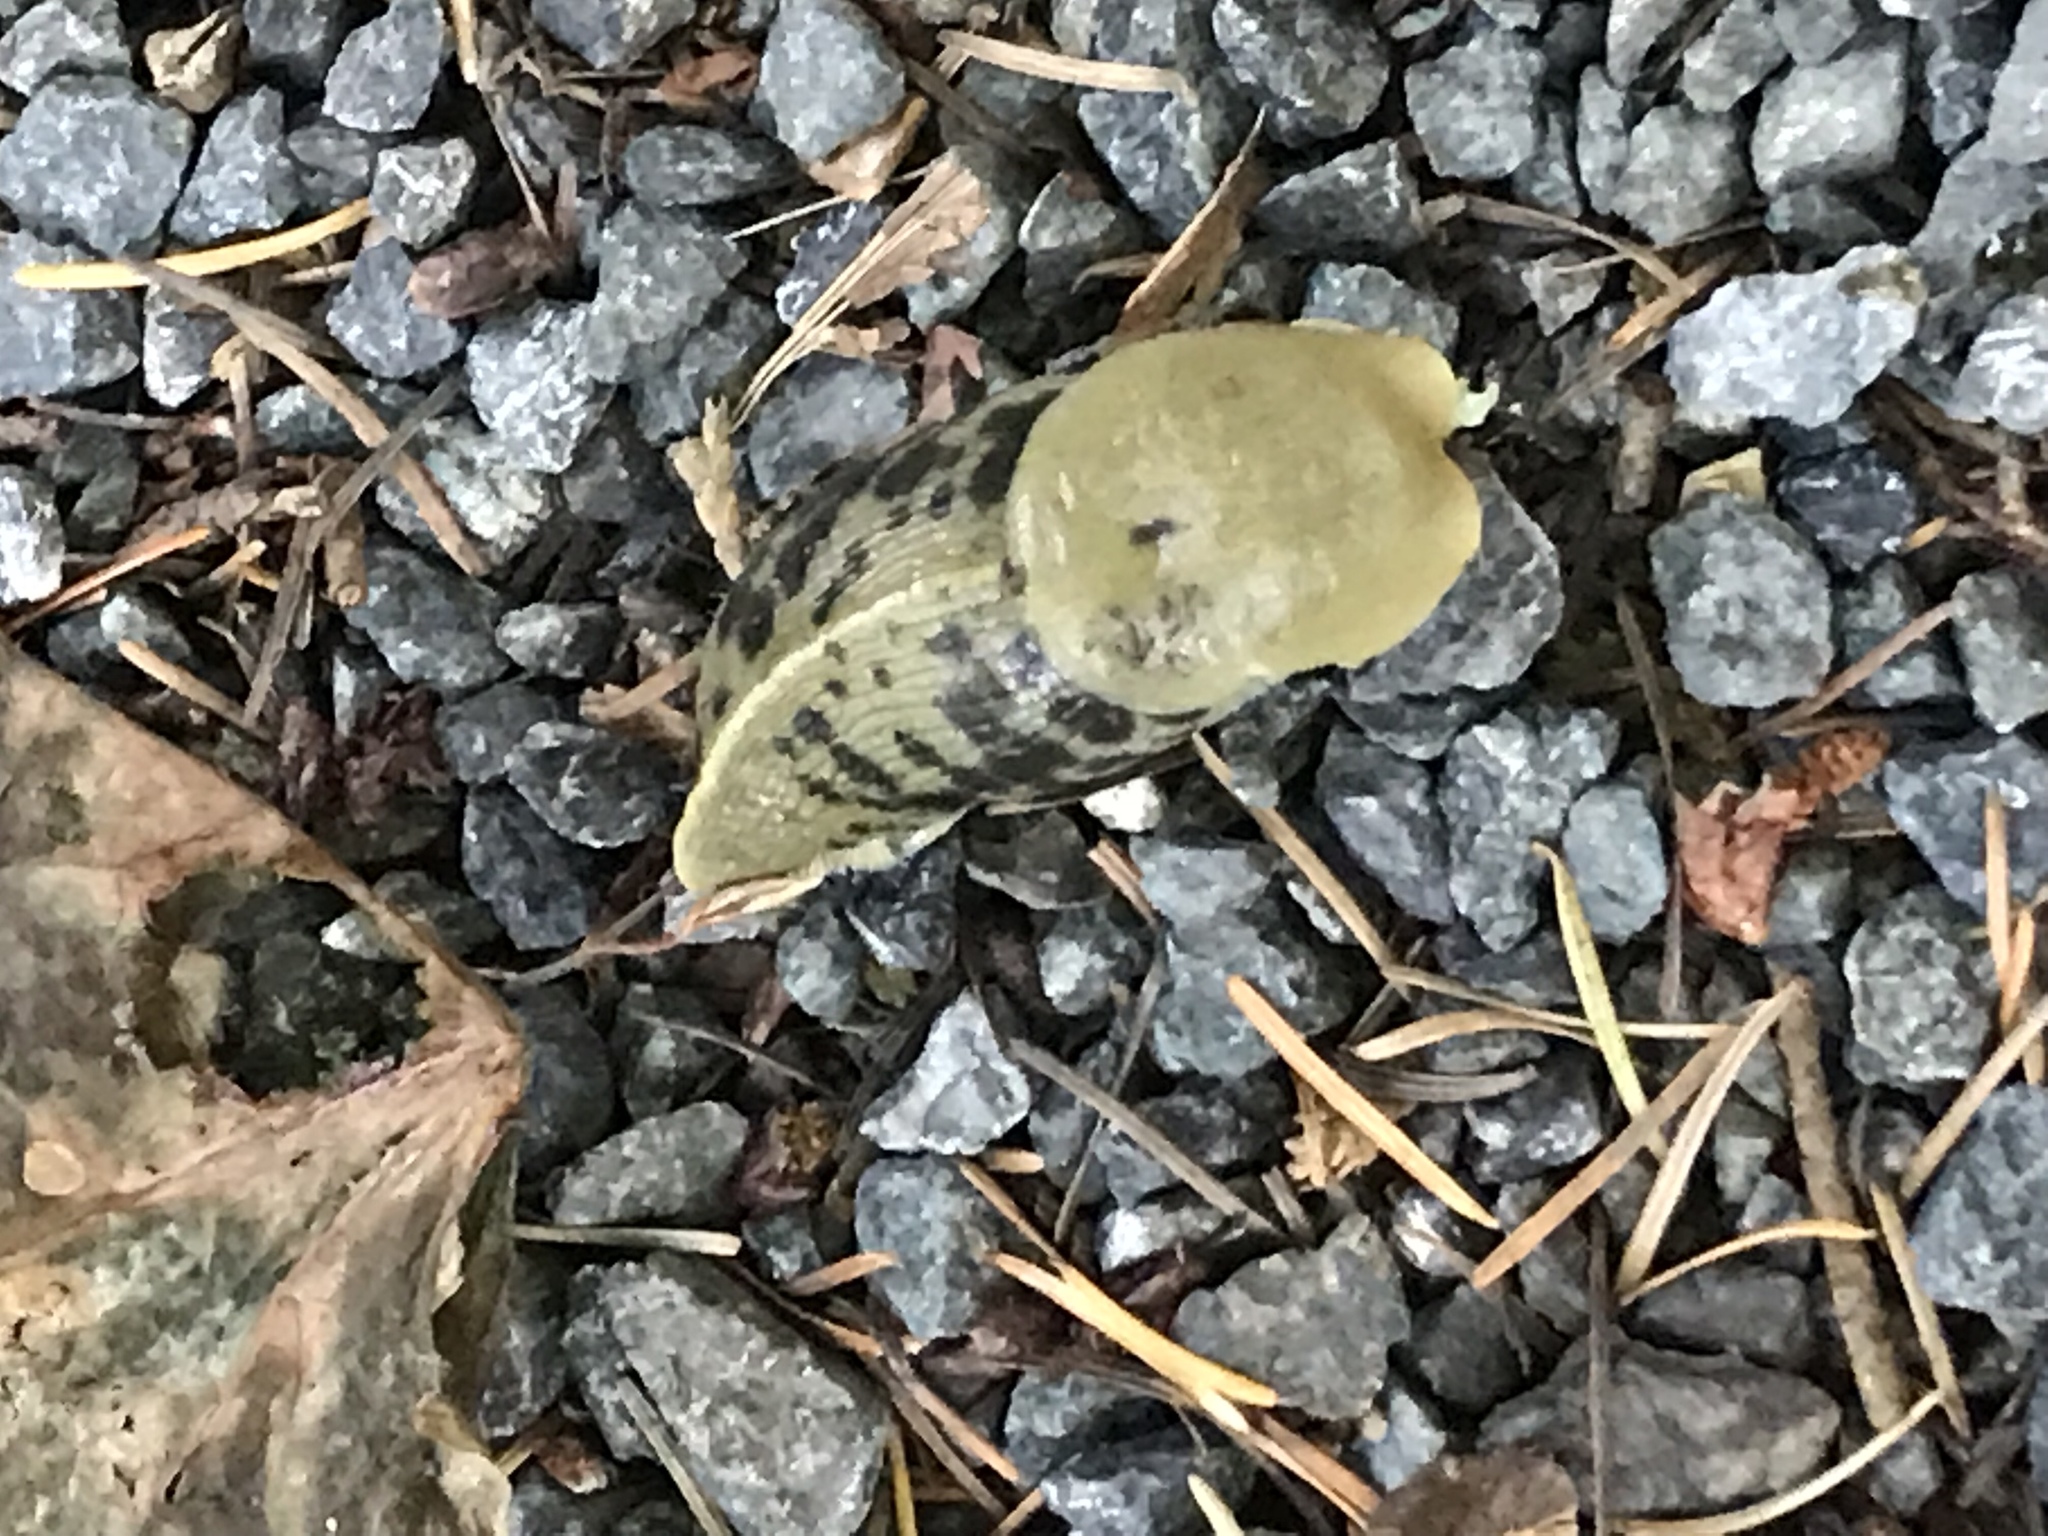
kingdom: Animalia
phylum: Mollusca
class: Gastropoda
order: Stylommatophora
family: Ariolimacidae
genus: Ariolimax
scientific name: Ariolimax columbianus
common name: Pacific banana slug
